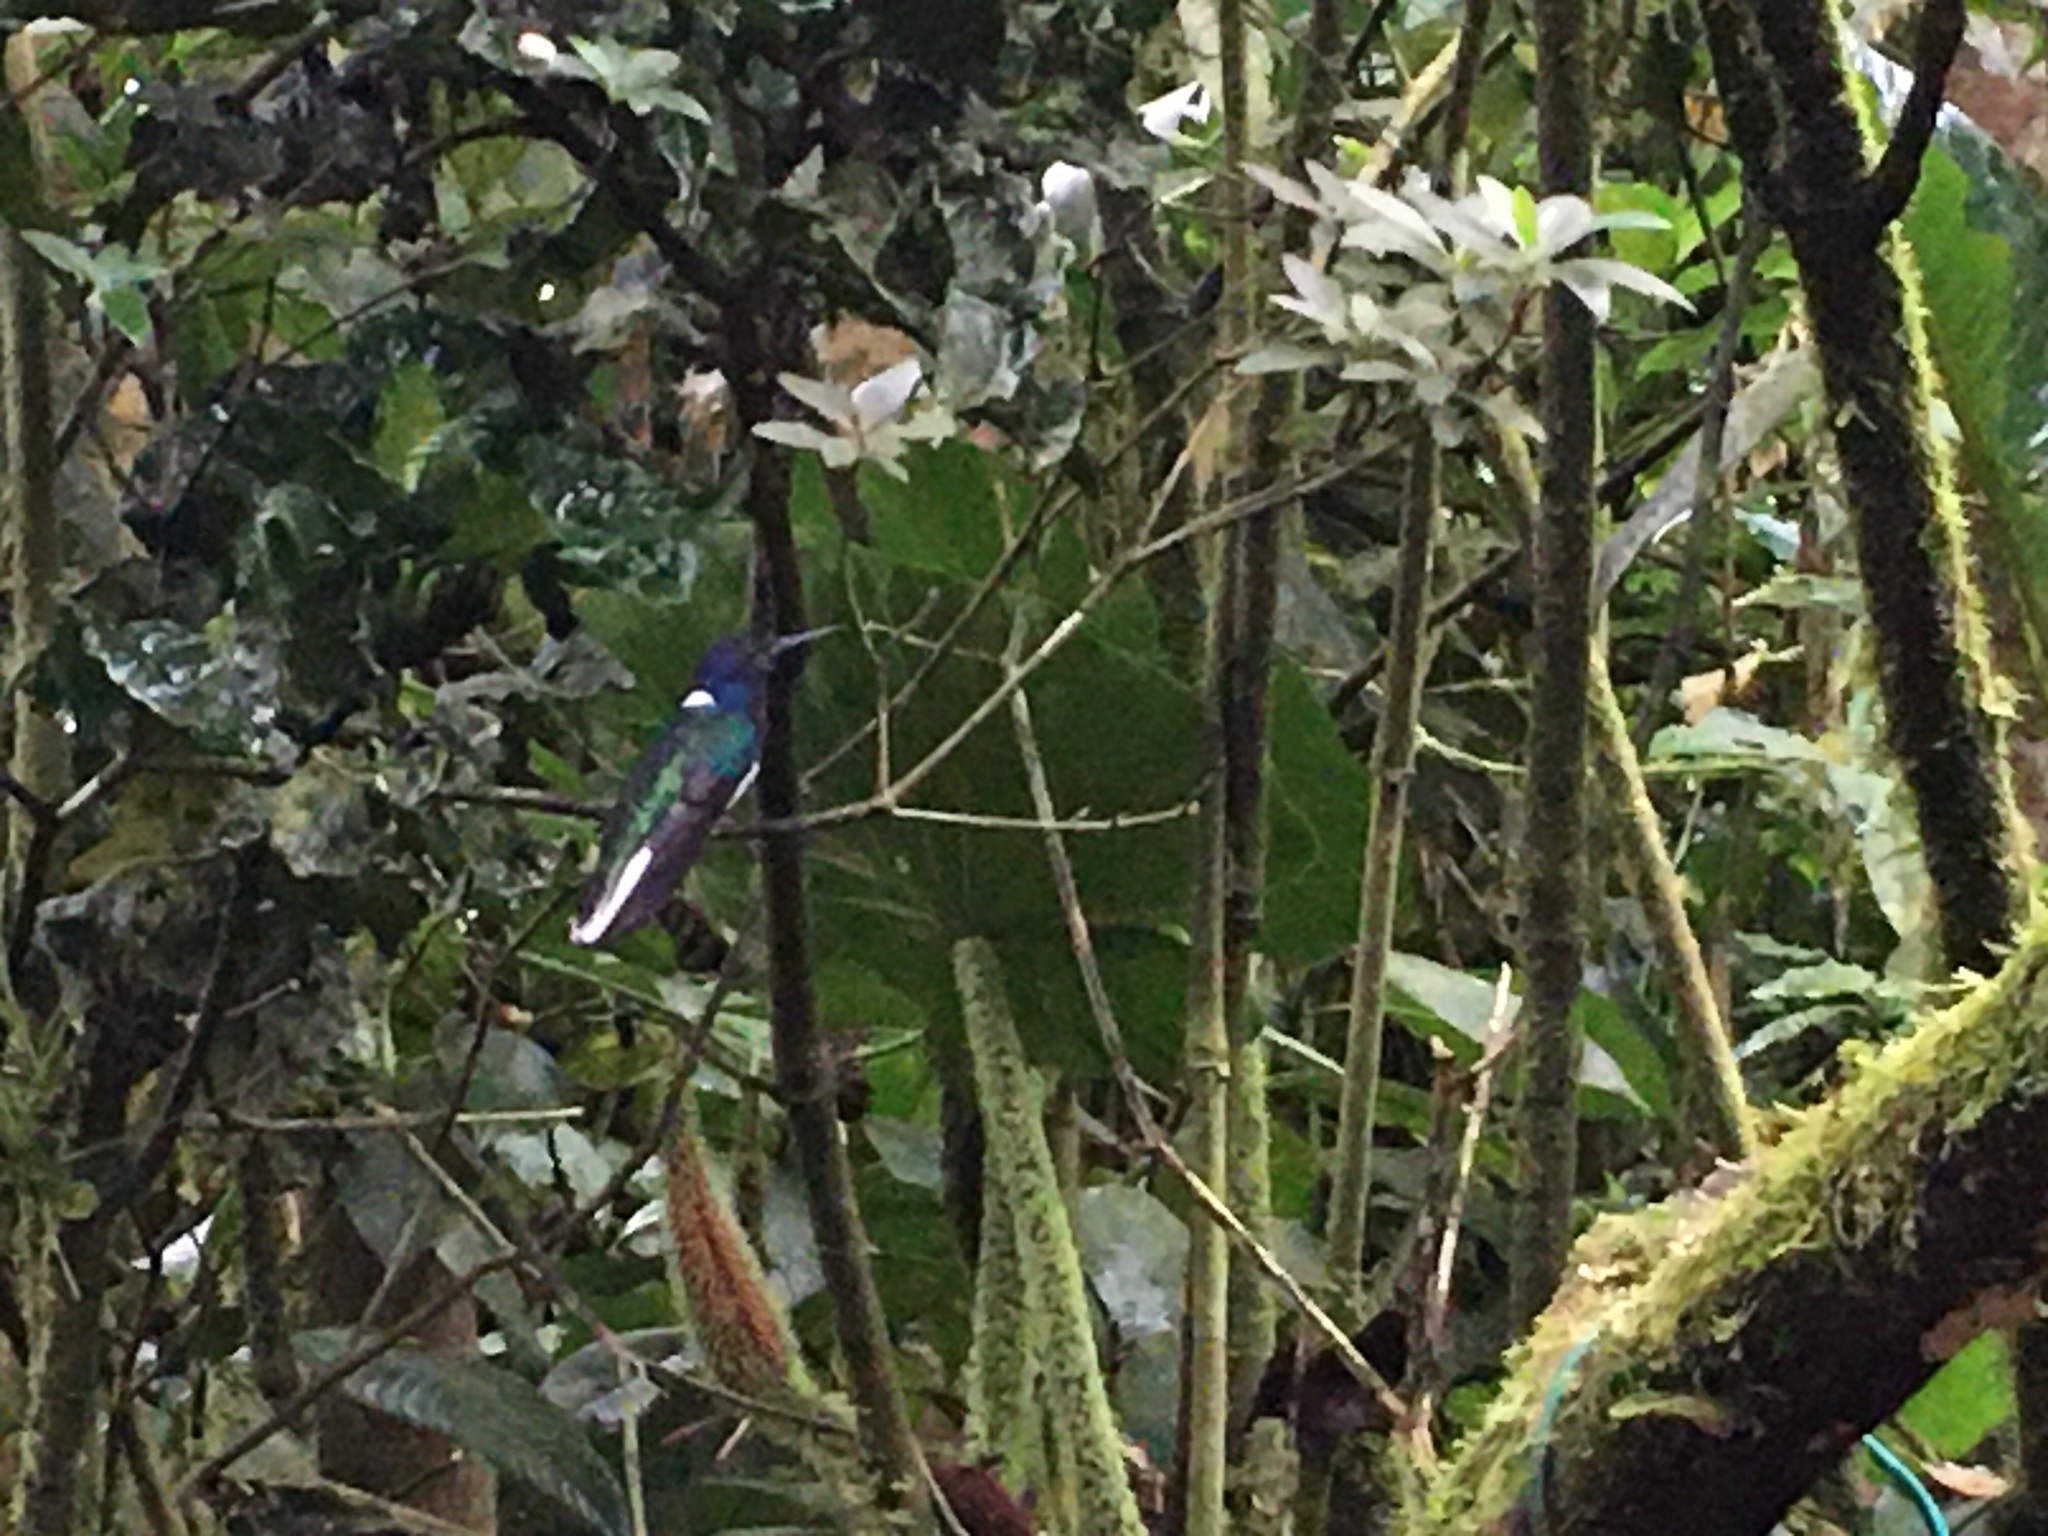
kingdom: Animalia
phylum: Chordata
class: Aves
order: Apodiformes
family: Trochilidae
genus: Florisuga
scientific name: Florisuga mellivora
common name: White-necked jacobin
